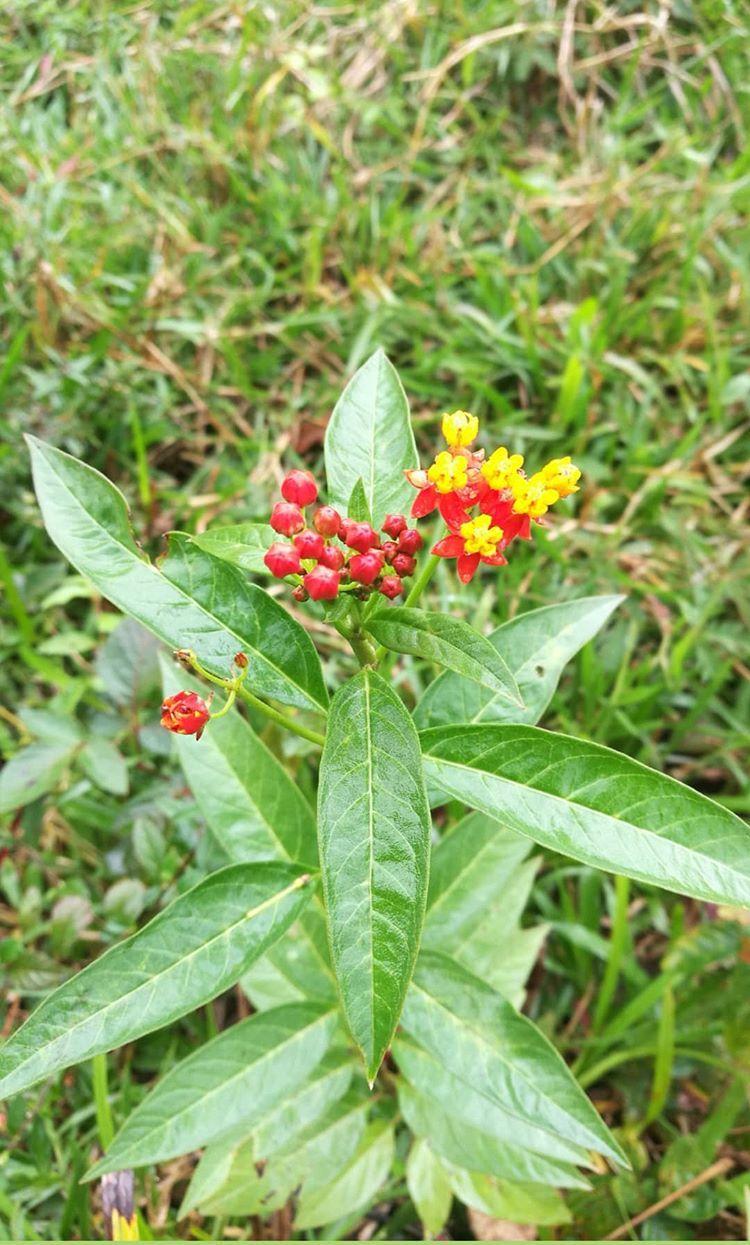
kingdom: Plantae
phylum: Tracheophyta
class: Magnoliopsida
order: Gentianales
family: Apocynaceae
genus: Asclepias
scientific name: Asclepias curassavica
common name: Bloodflower
